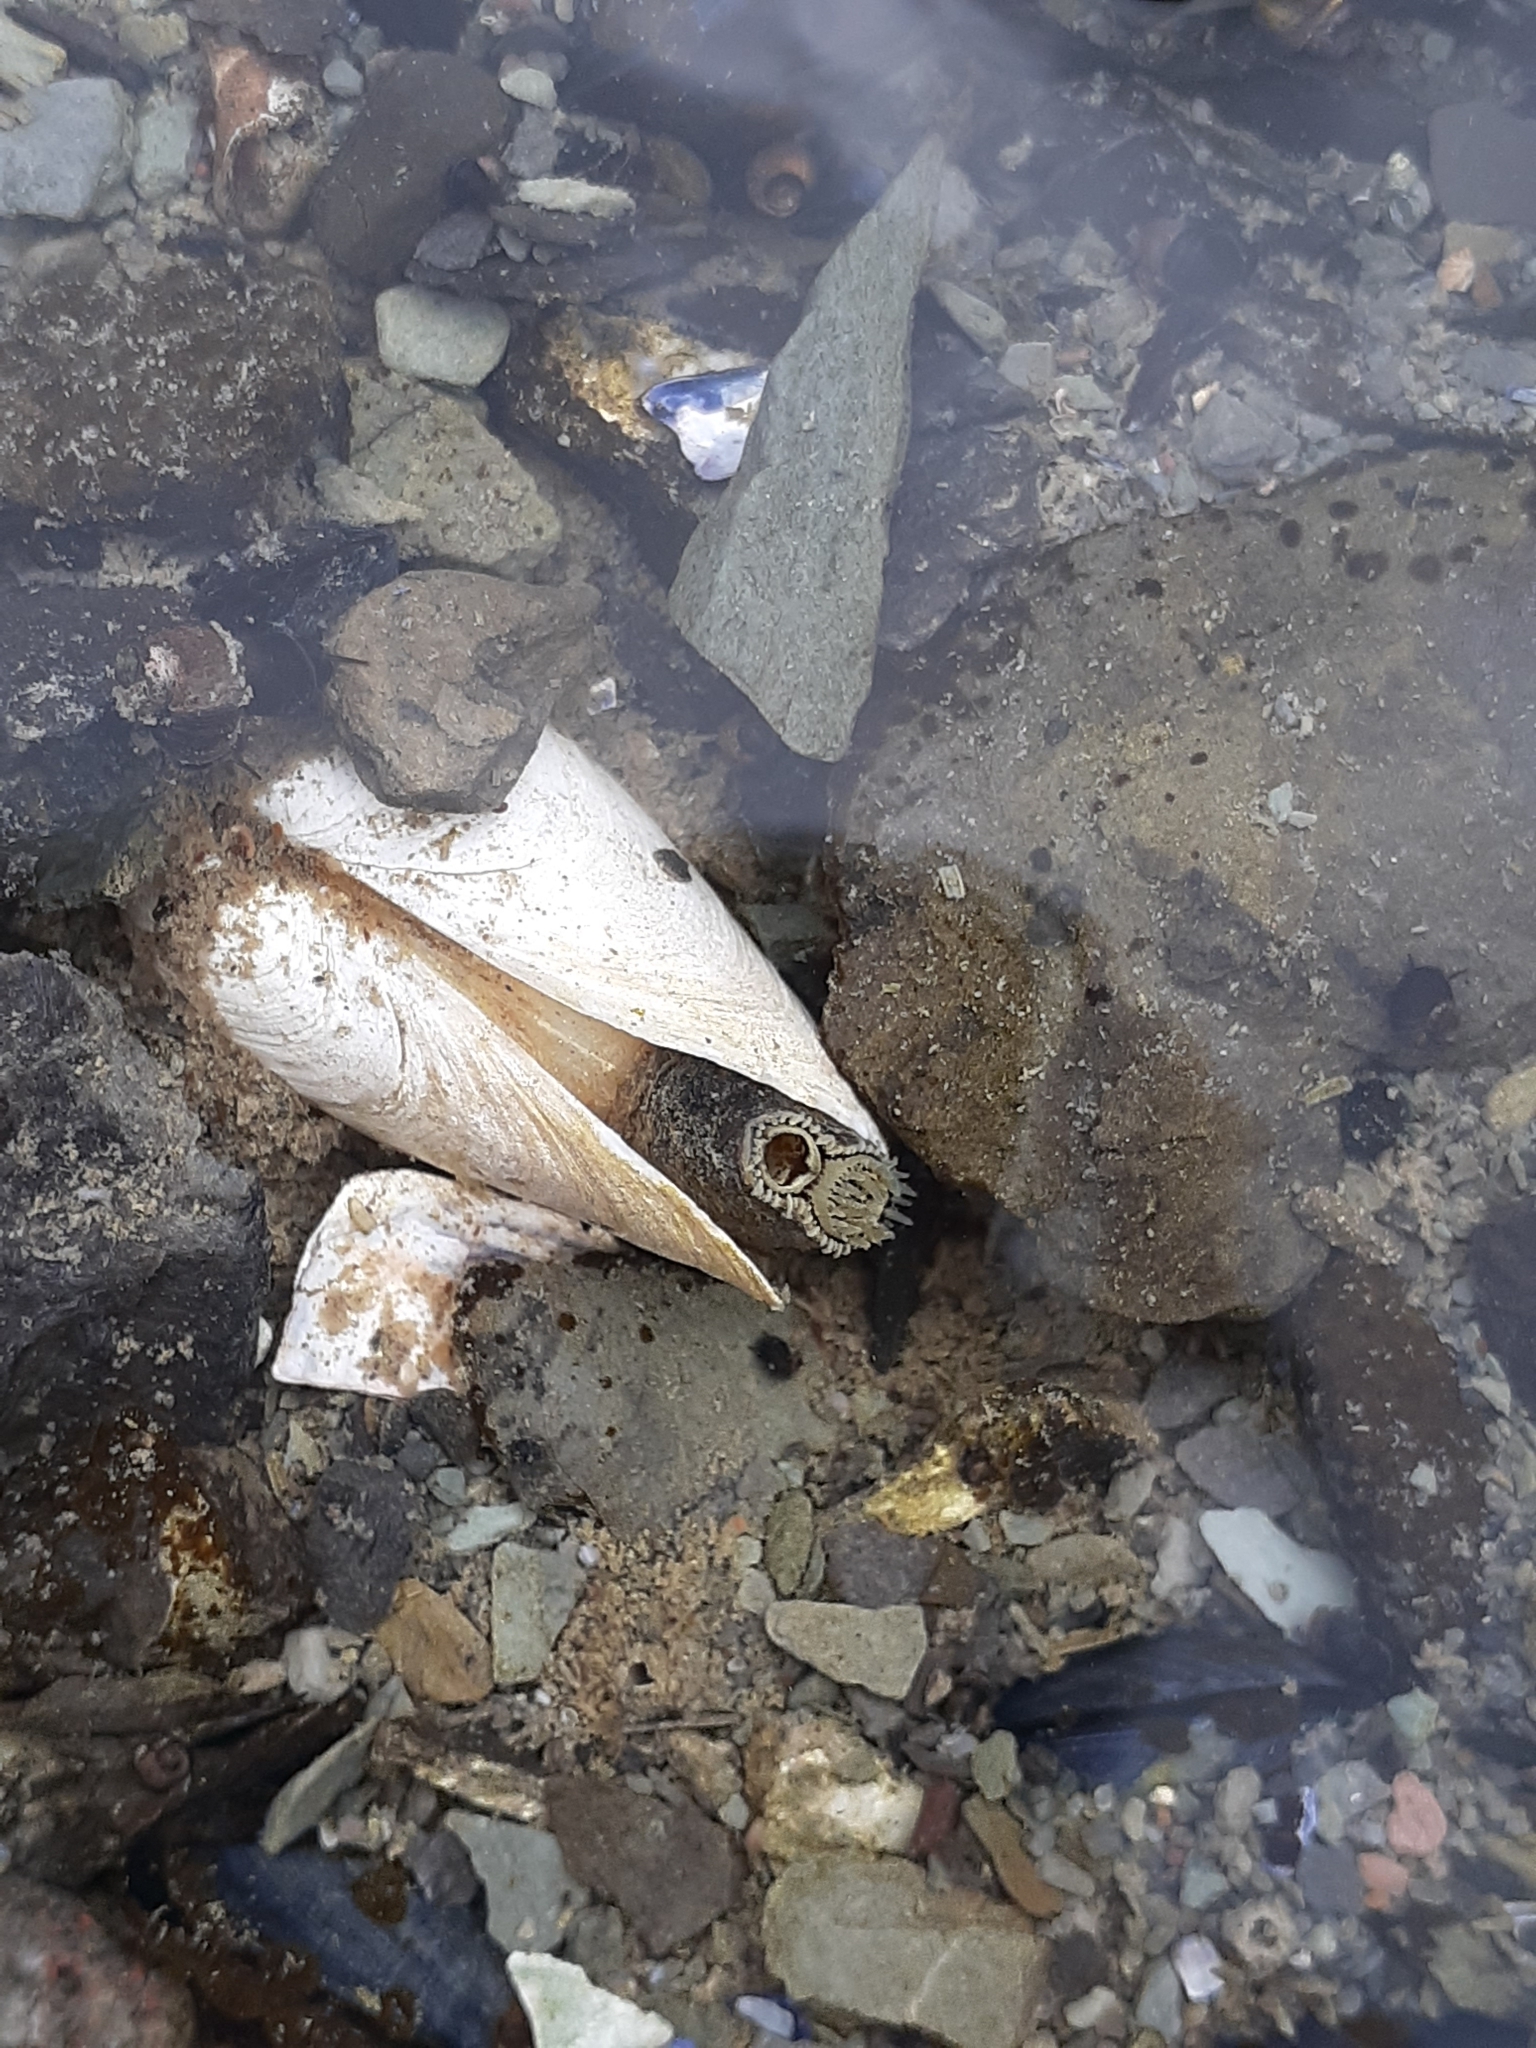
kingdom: Animalia
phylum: Mollusca
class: Bivalvia
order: Myida
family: Myidae
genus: Mya
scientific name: Mya arenaria
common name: Soft-shelled clam
